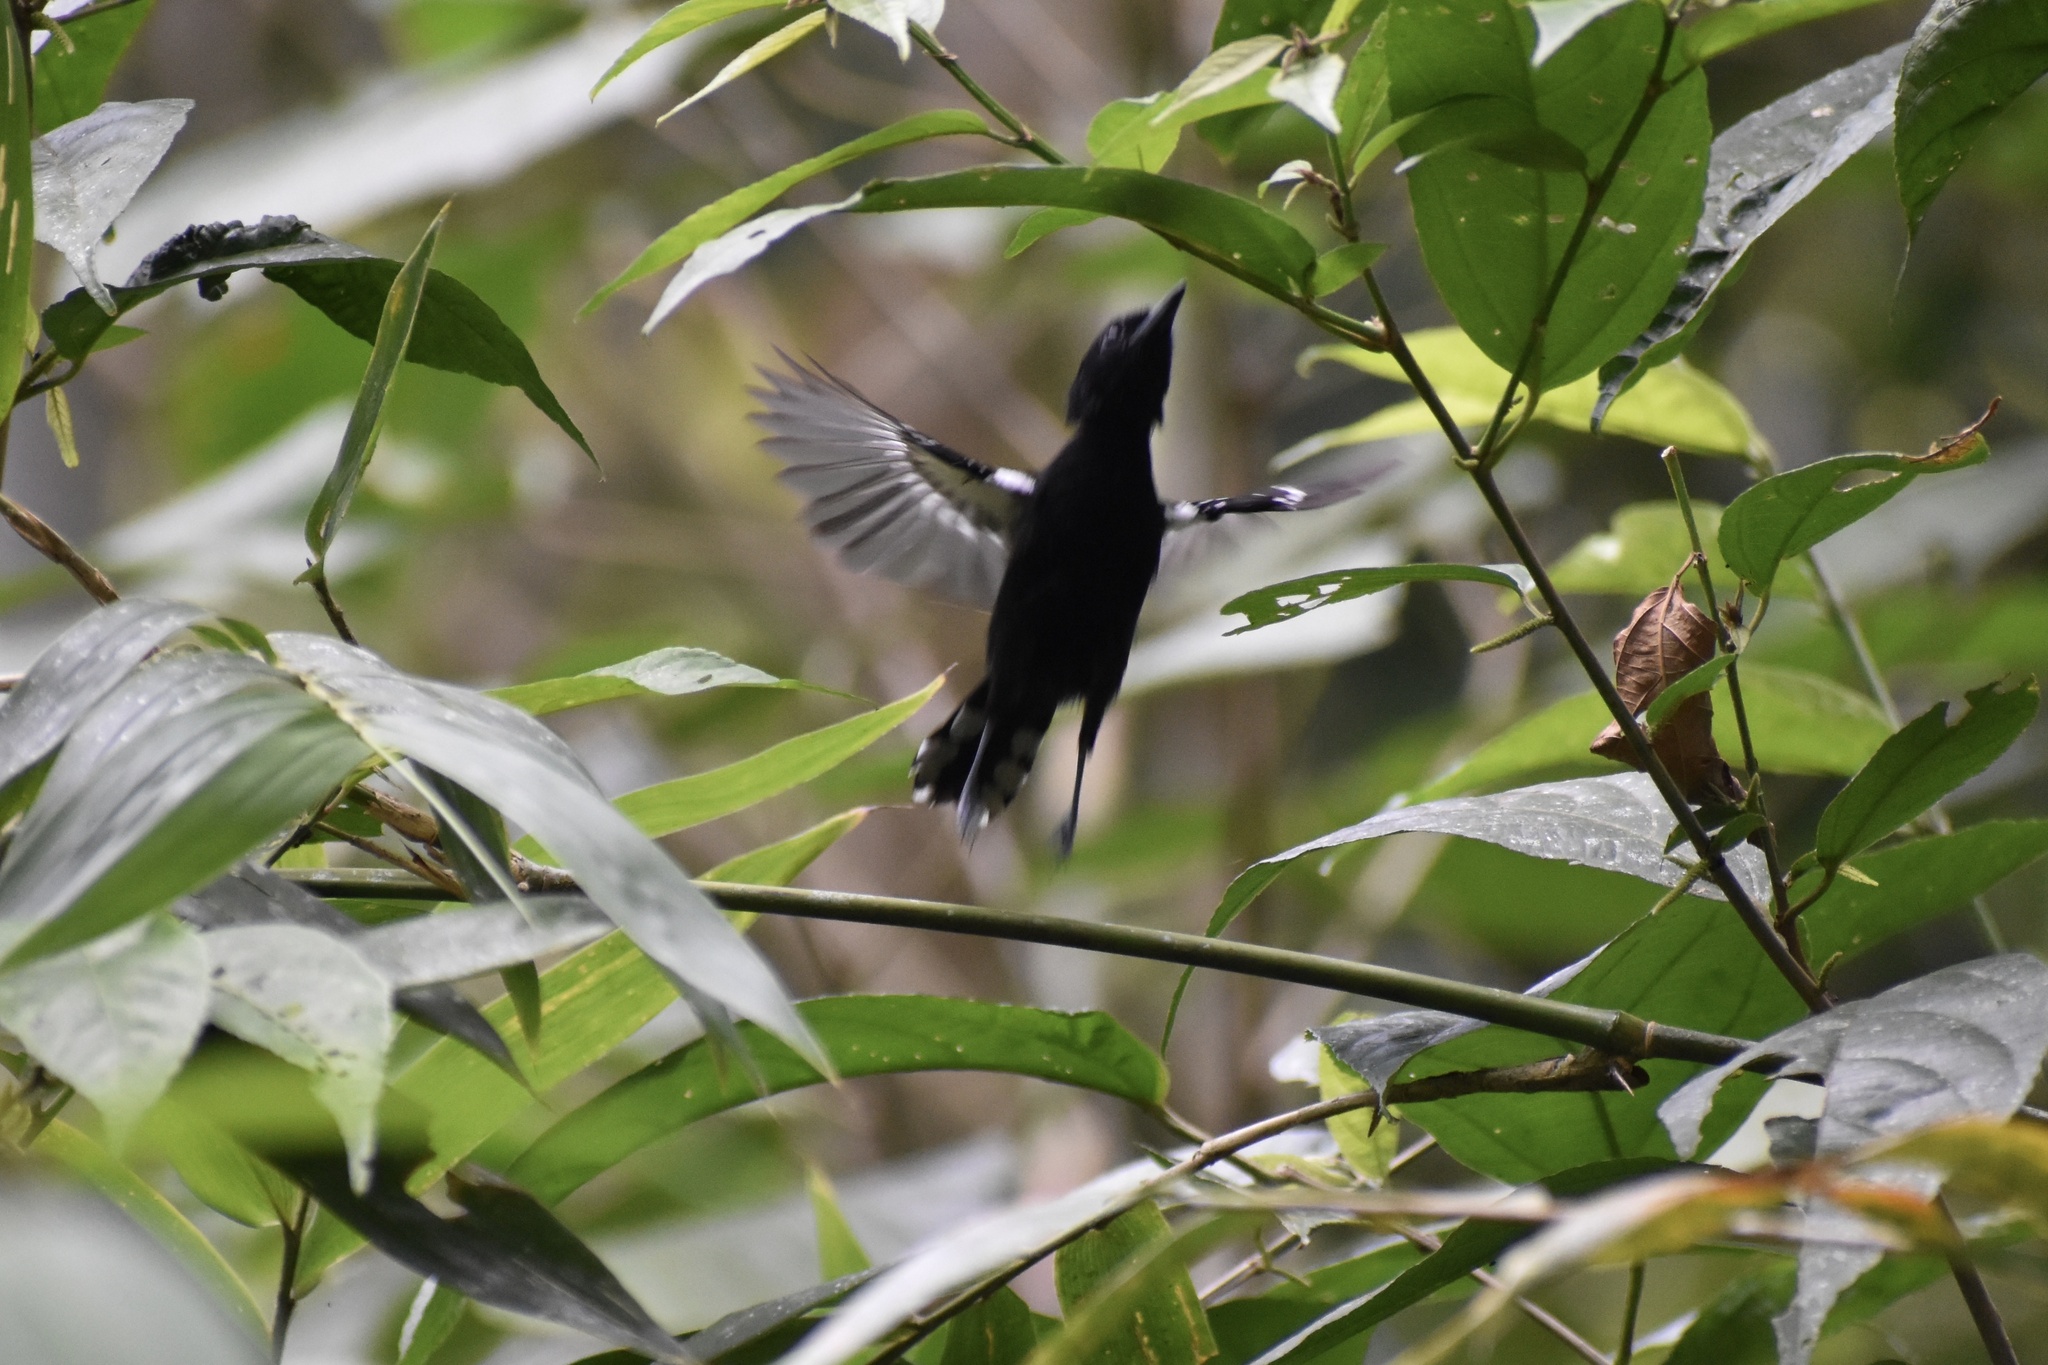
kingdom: Animalia
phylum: Chordata
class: Aves
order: Passeriformes
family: Thamnophilidae
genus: Microrhopias
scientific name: Microrhopias quixensis
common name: Dot-winged antwren
